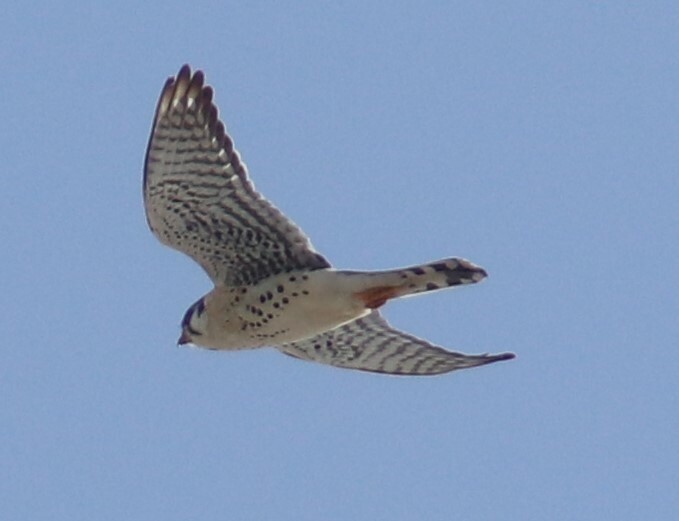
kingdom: Animalia
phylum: Chordata
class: Aves
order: Falconiformes
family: Falconidae
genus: Falco
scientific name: Falco sparverius
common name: American kestrel
